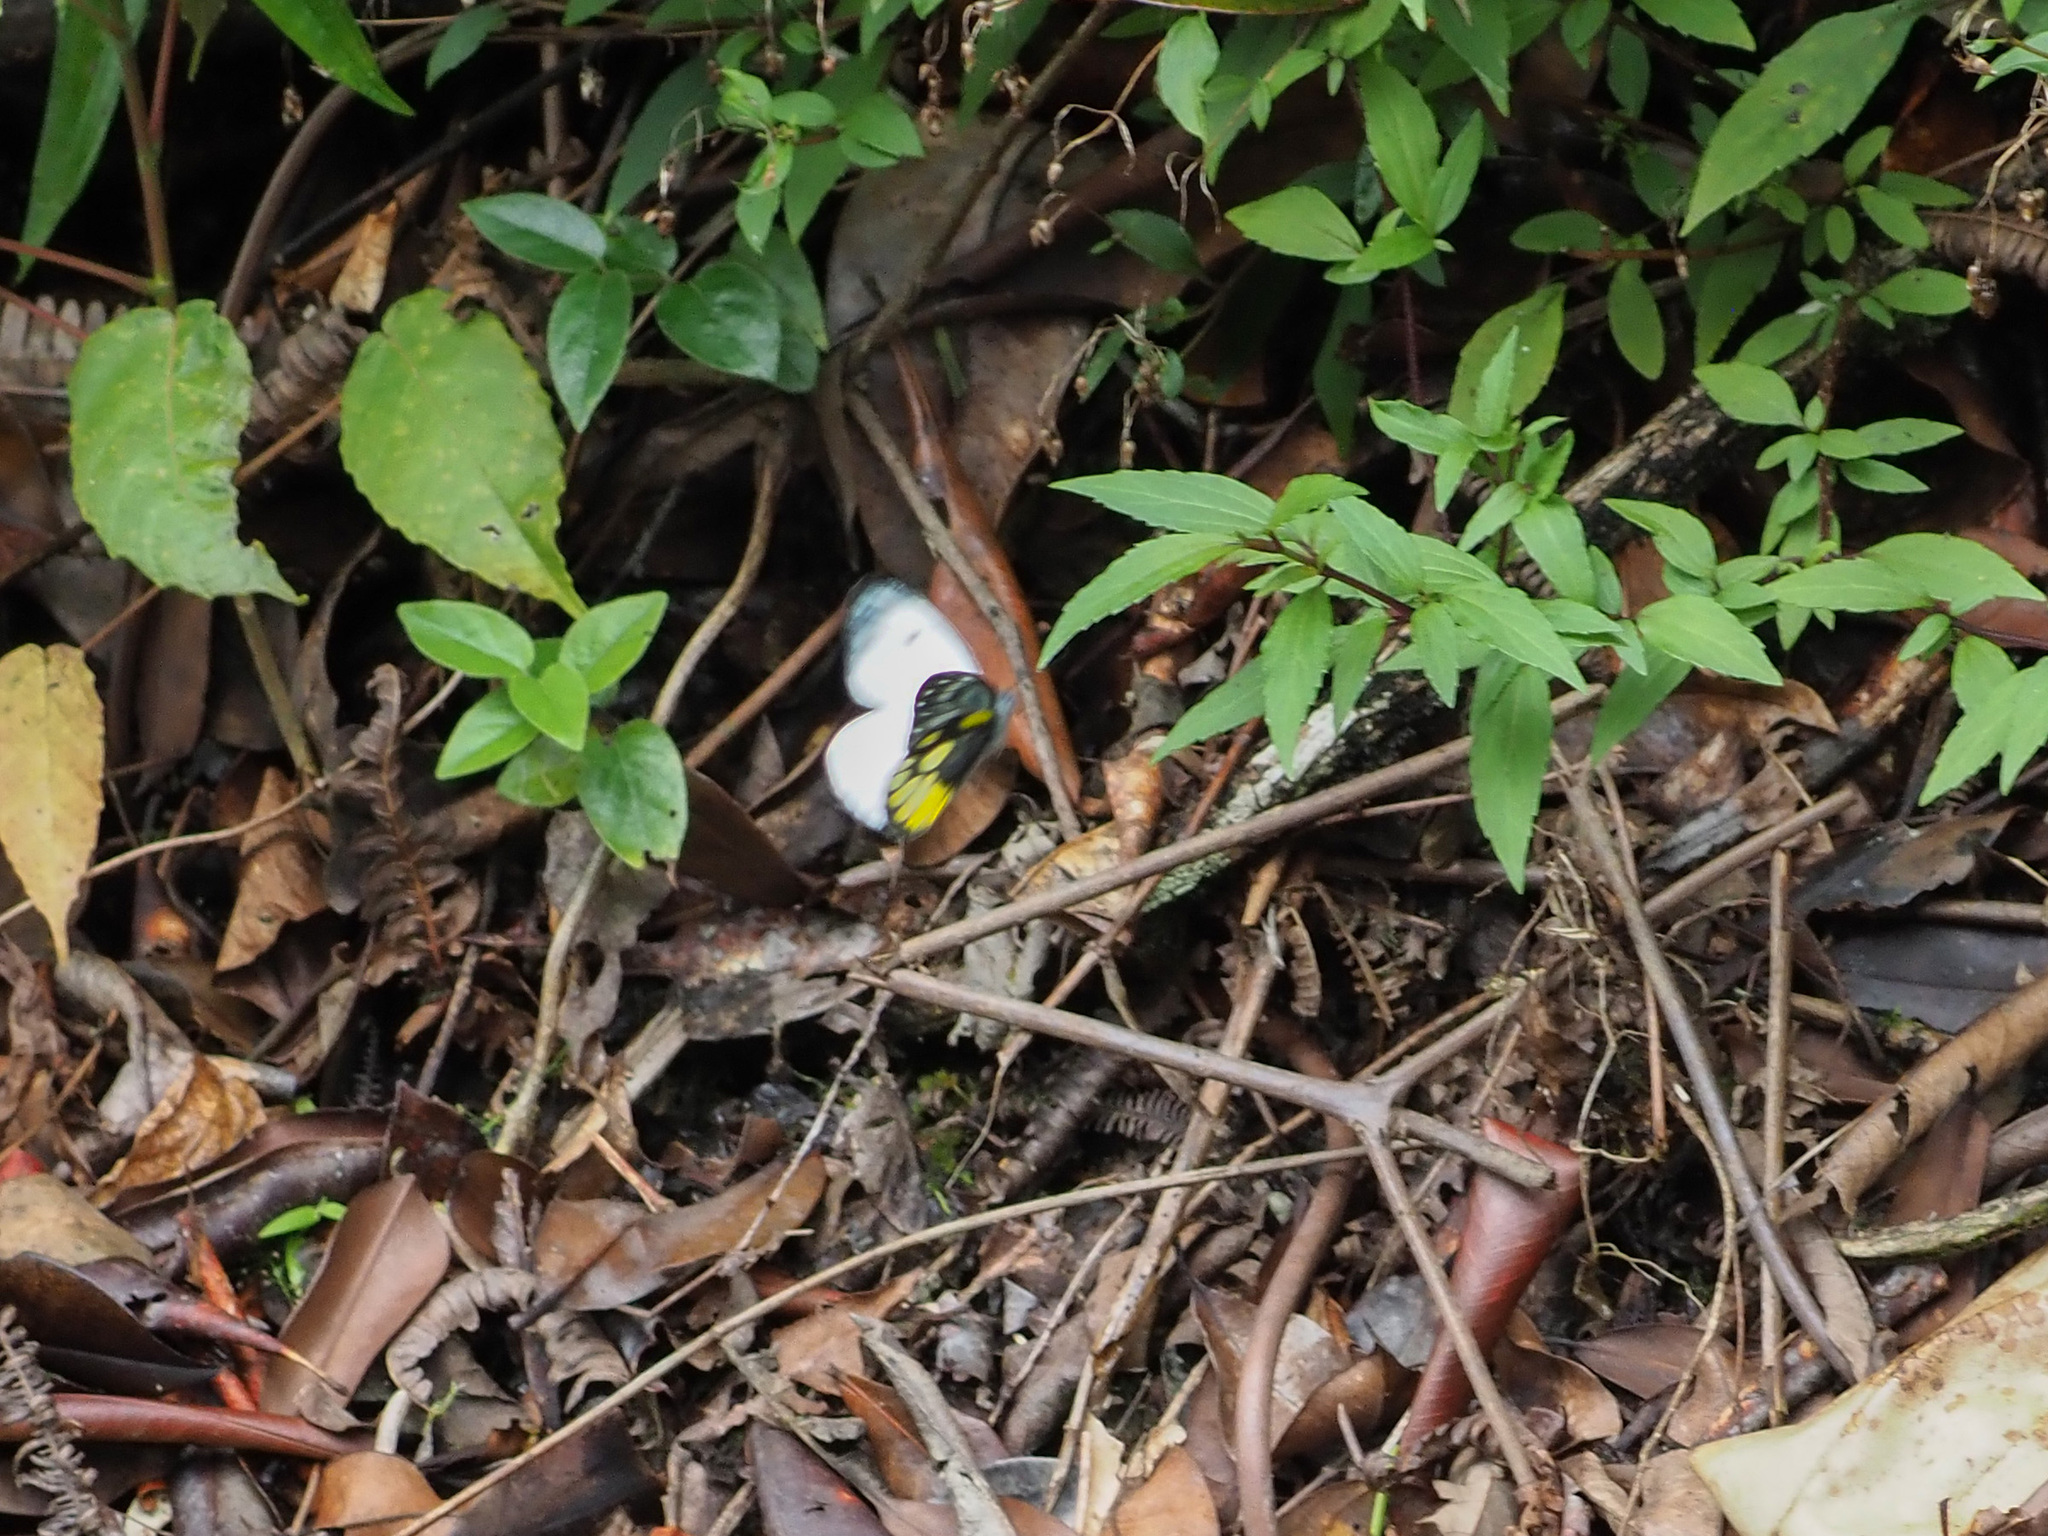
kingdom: Animalia
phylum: Arthropoda
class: Insecta
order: Lepidoptera
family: Pieridae
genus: Delias
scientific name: Delias cinerascens
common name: Kinabalu jezebel
